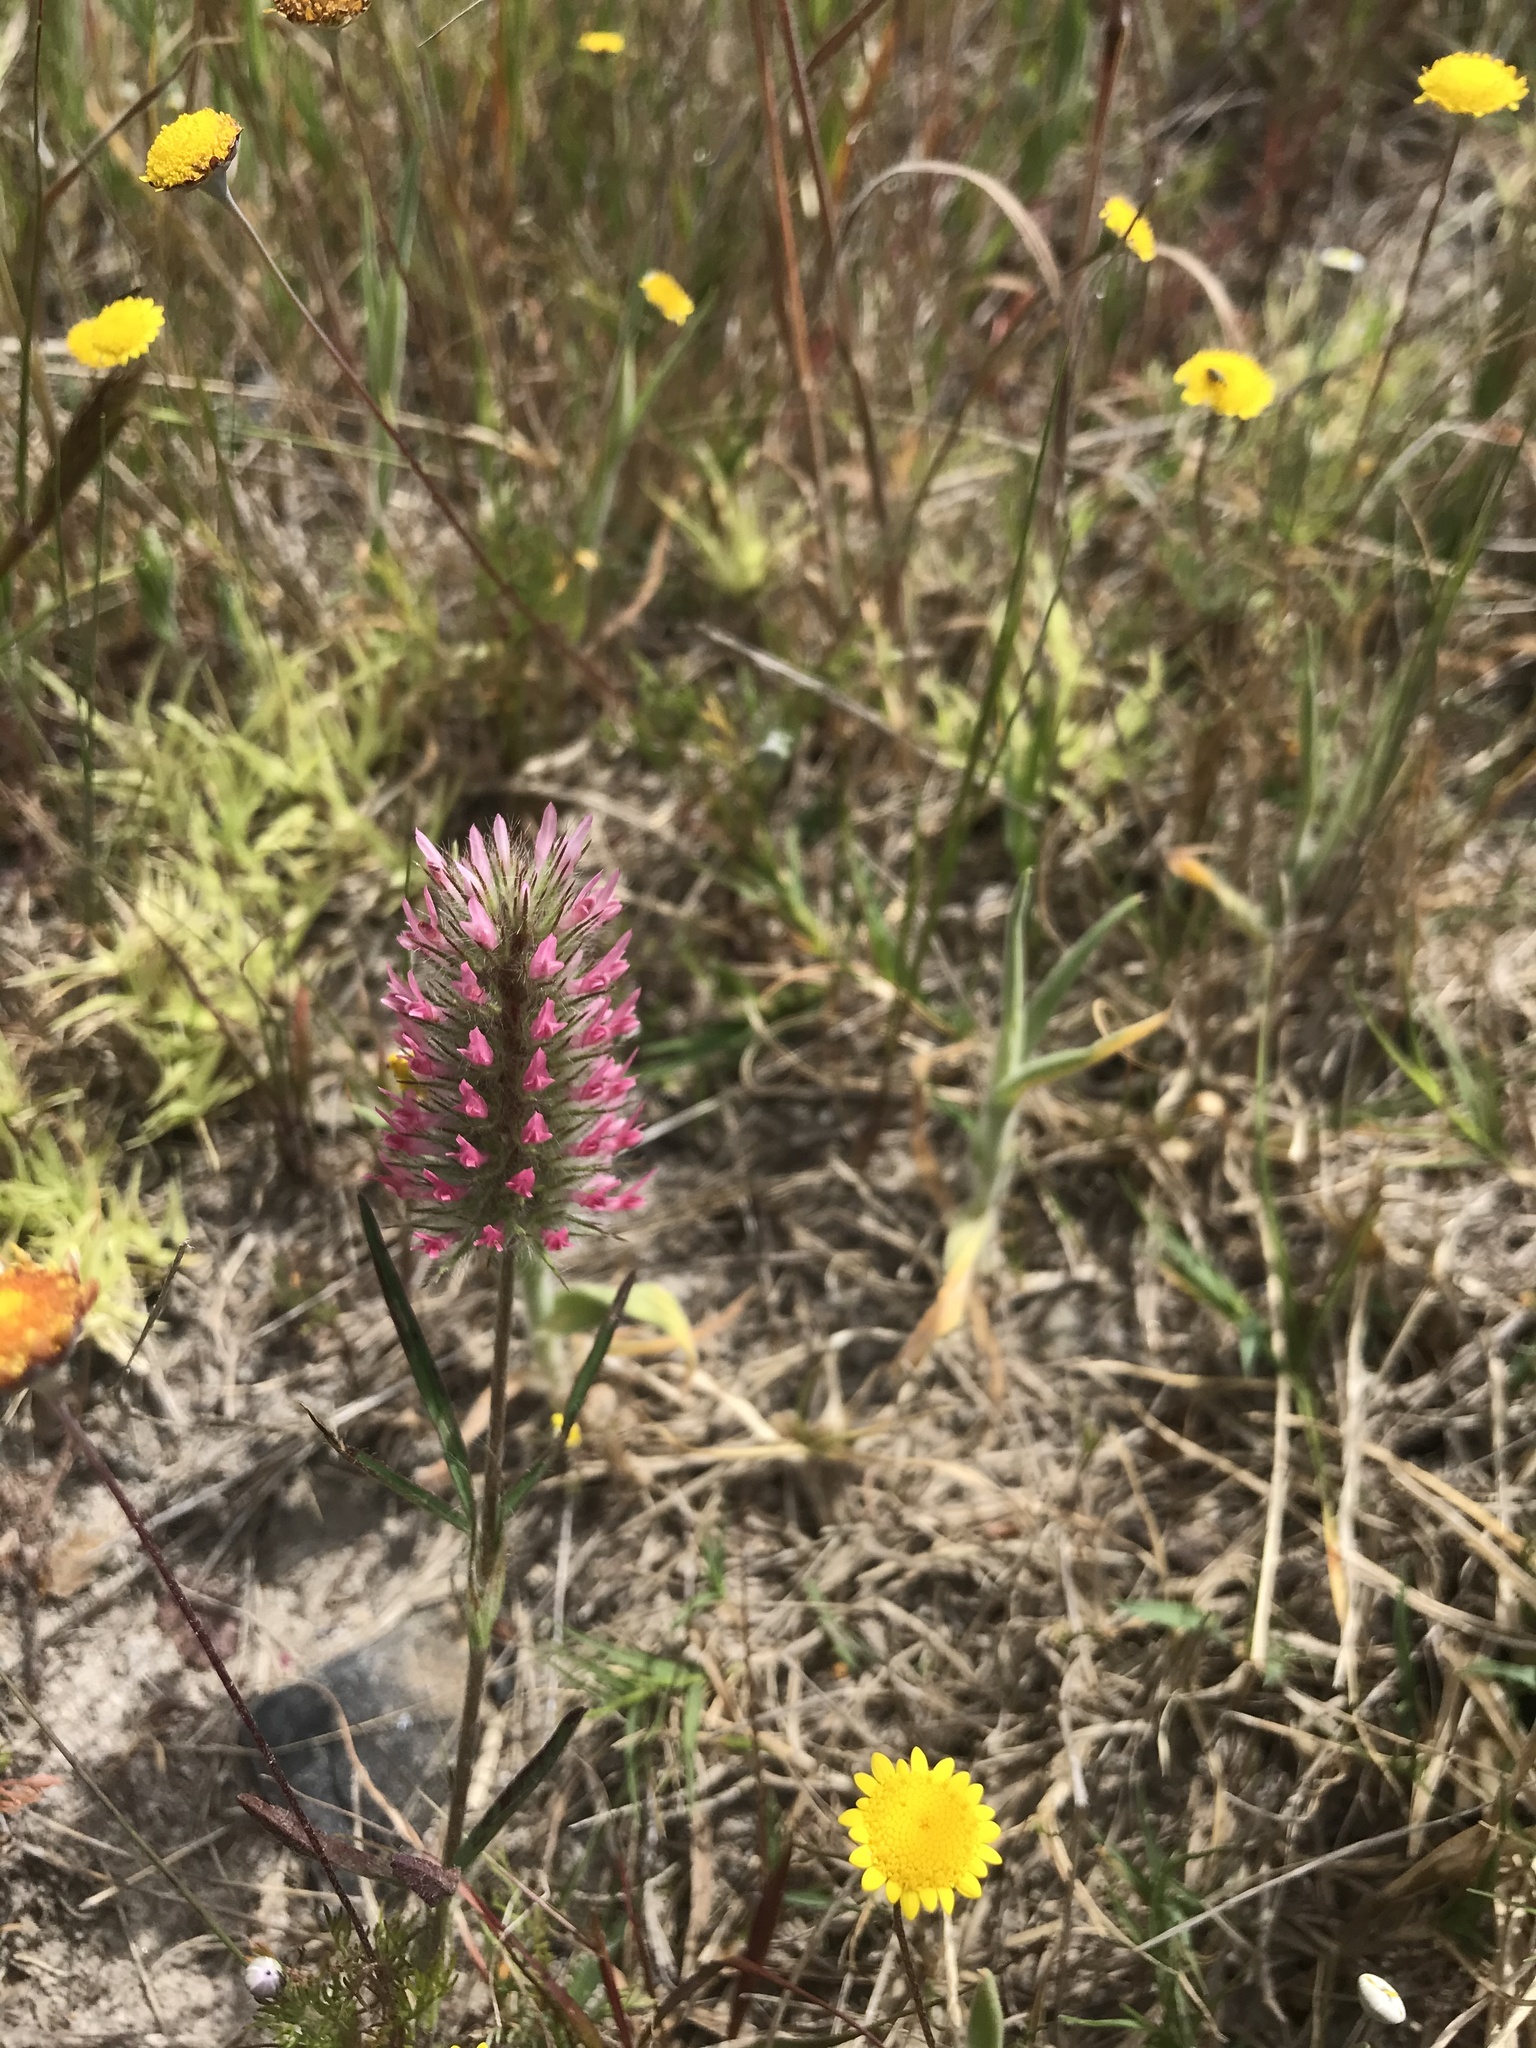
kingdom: Plantae
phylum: Tracheophyta
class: Magnoliopsida
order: Fabales
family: Fabaceae
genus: Trifolium
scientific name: Trifolium angustifolium
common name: Narrow clover
